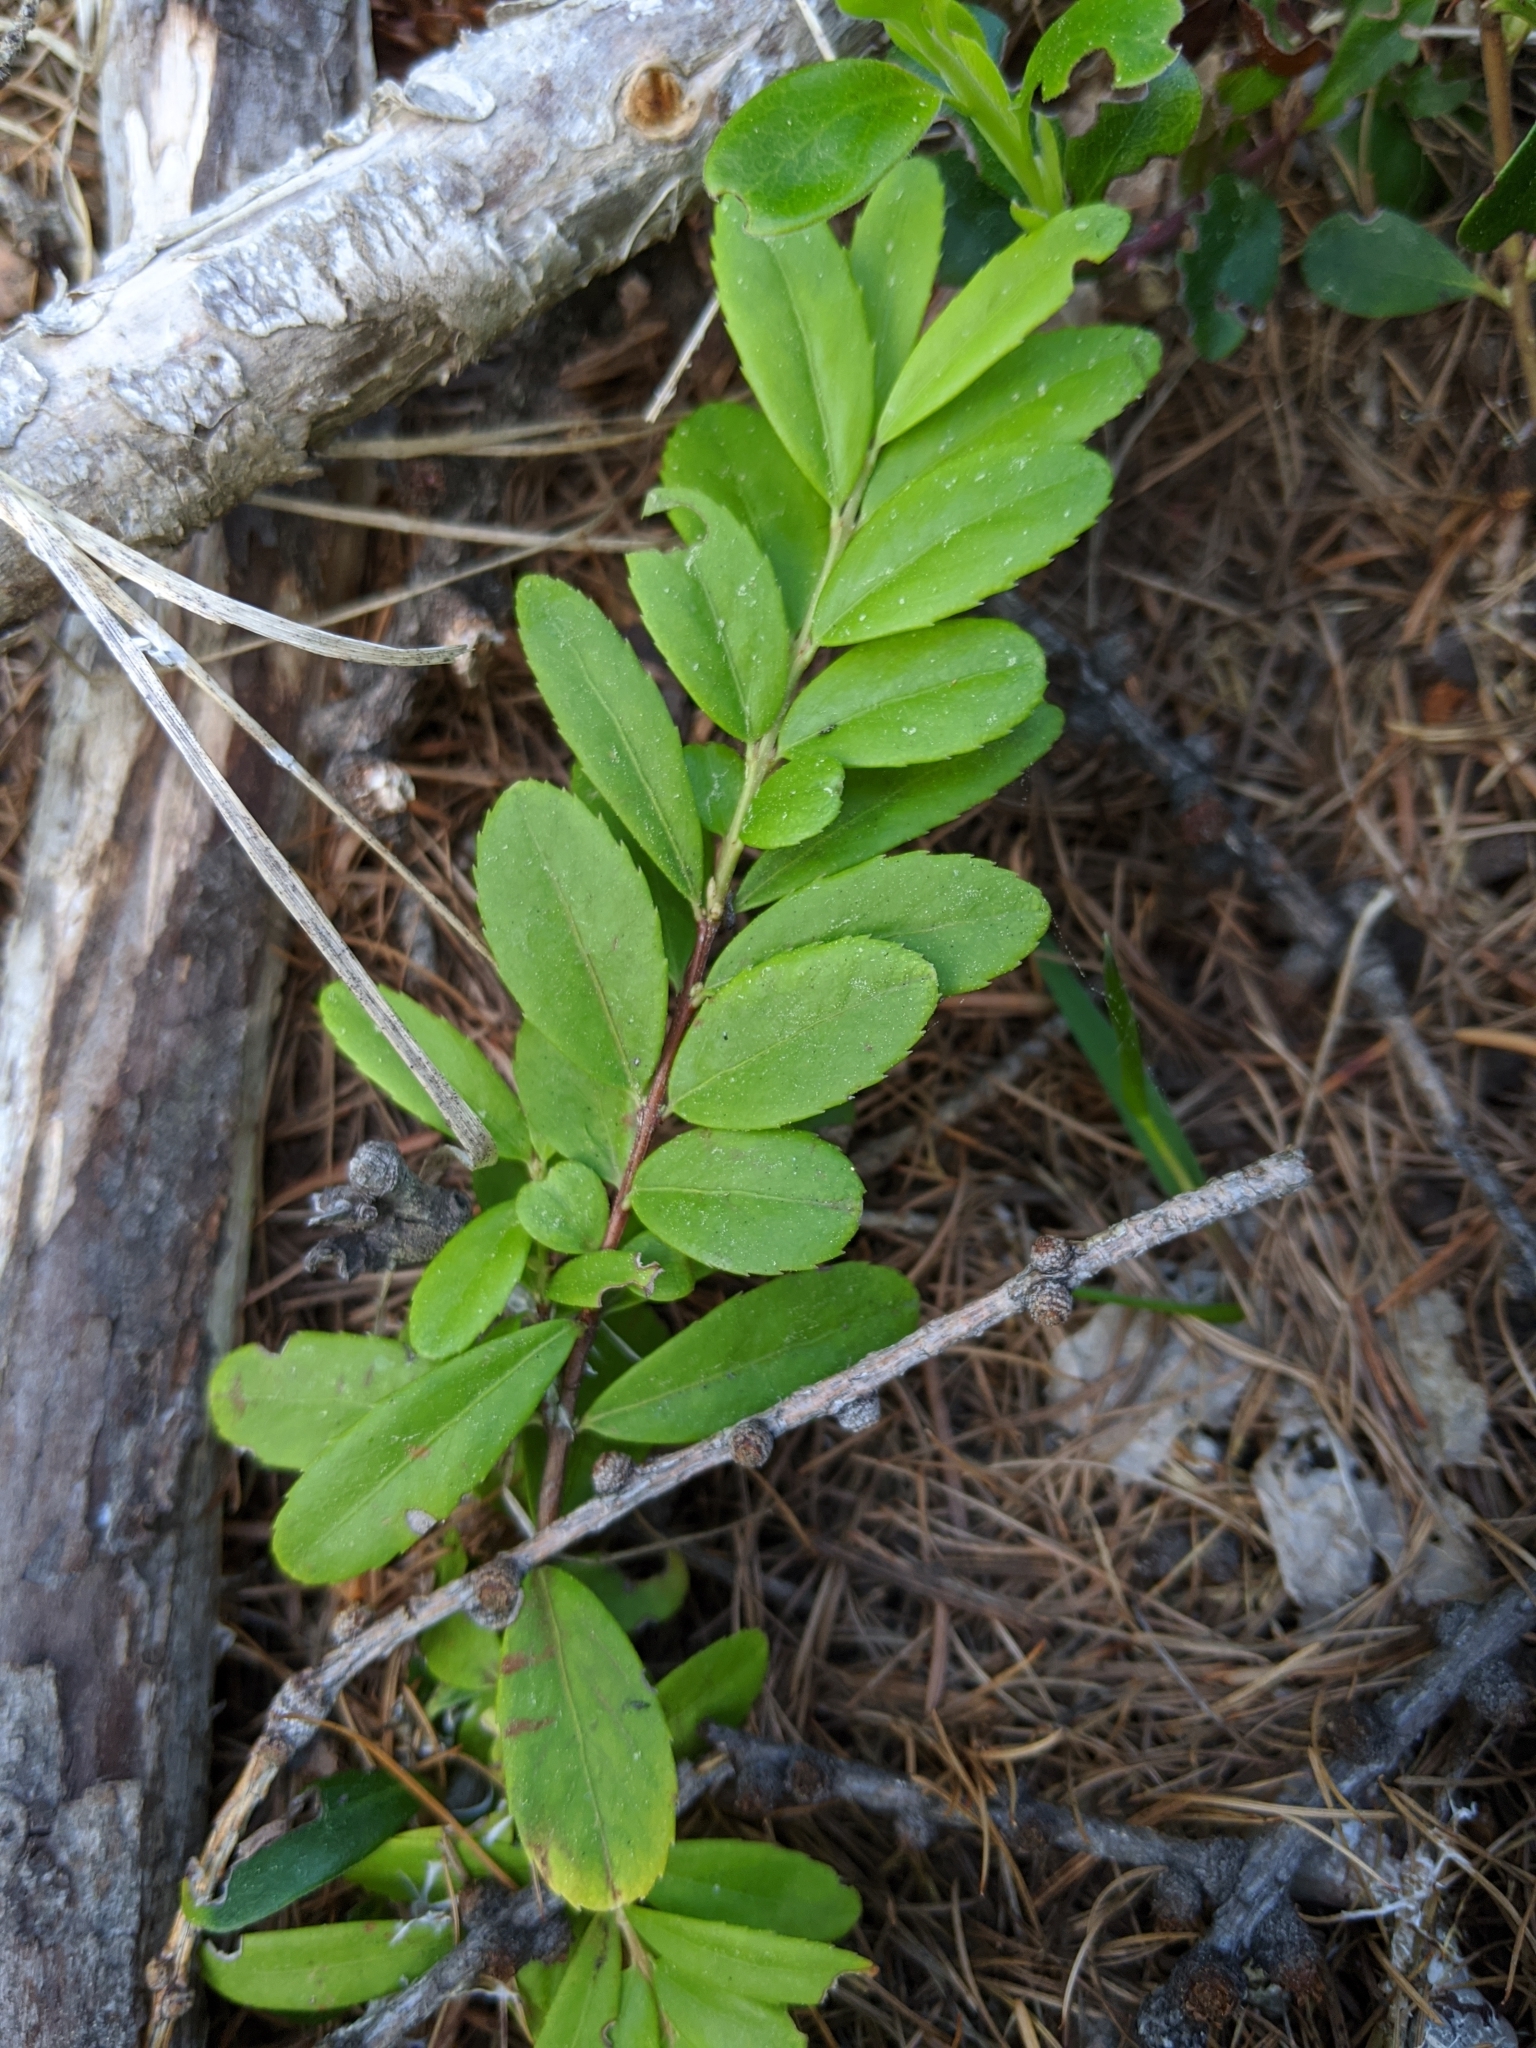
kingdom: Plantae
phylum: Tracheophyta
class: Magnoliopsida
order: Celastrales
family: Celastraceae
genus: Paxistima
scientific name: Paxistima myrsinites
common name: Mountain-lover
